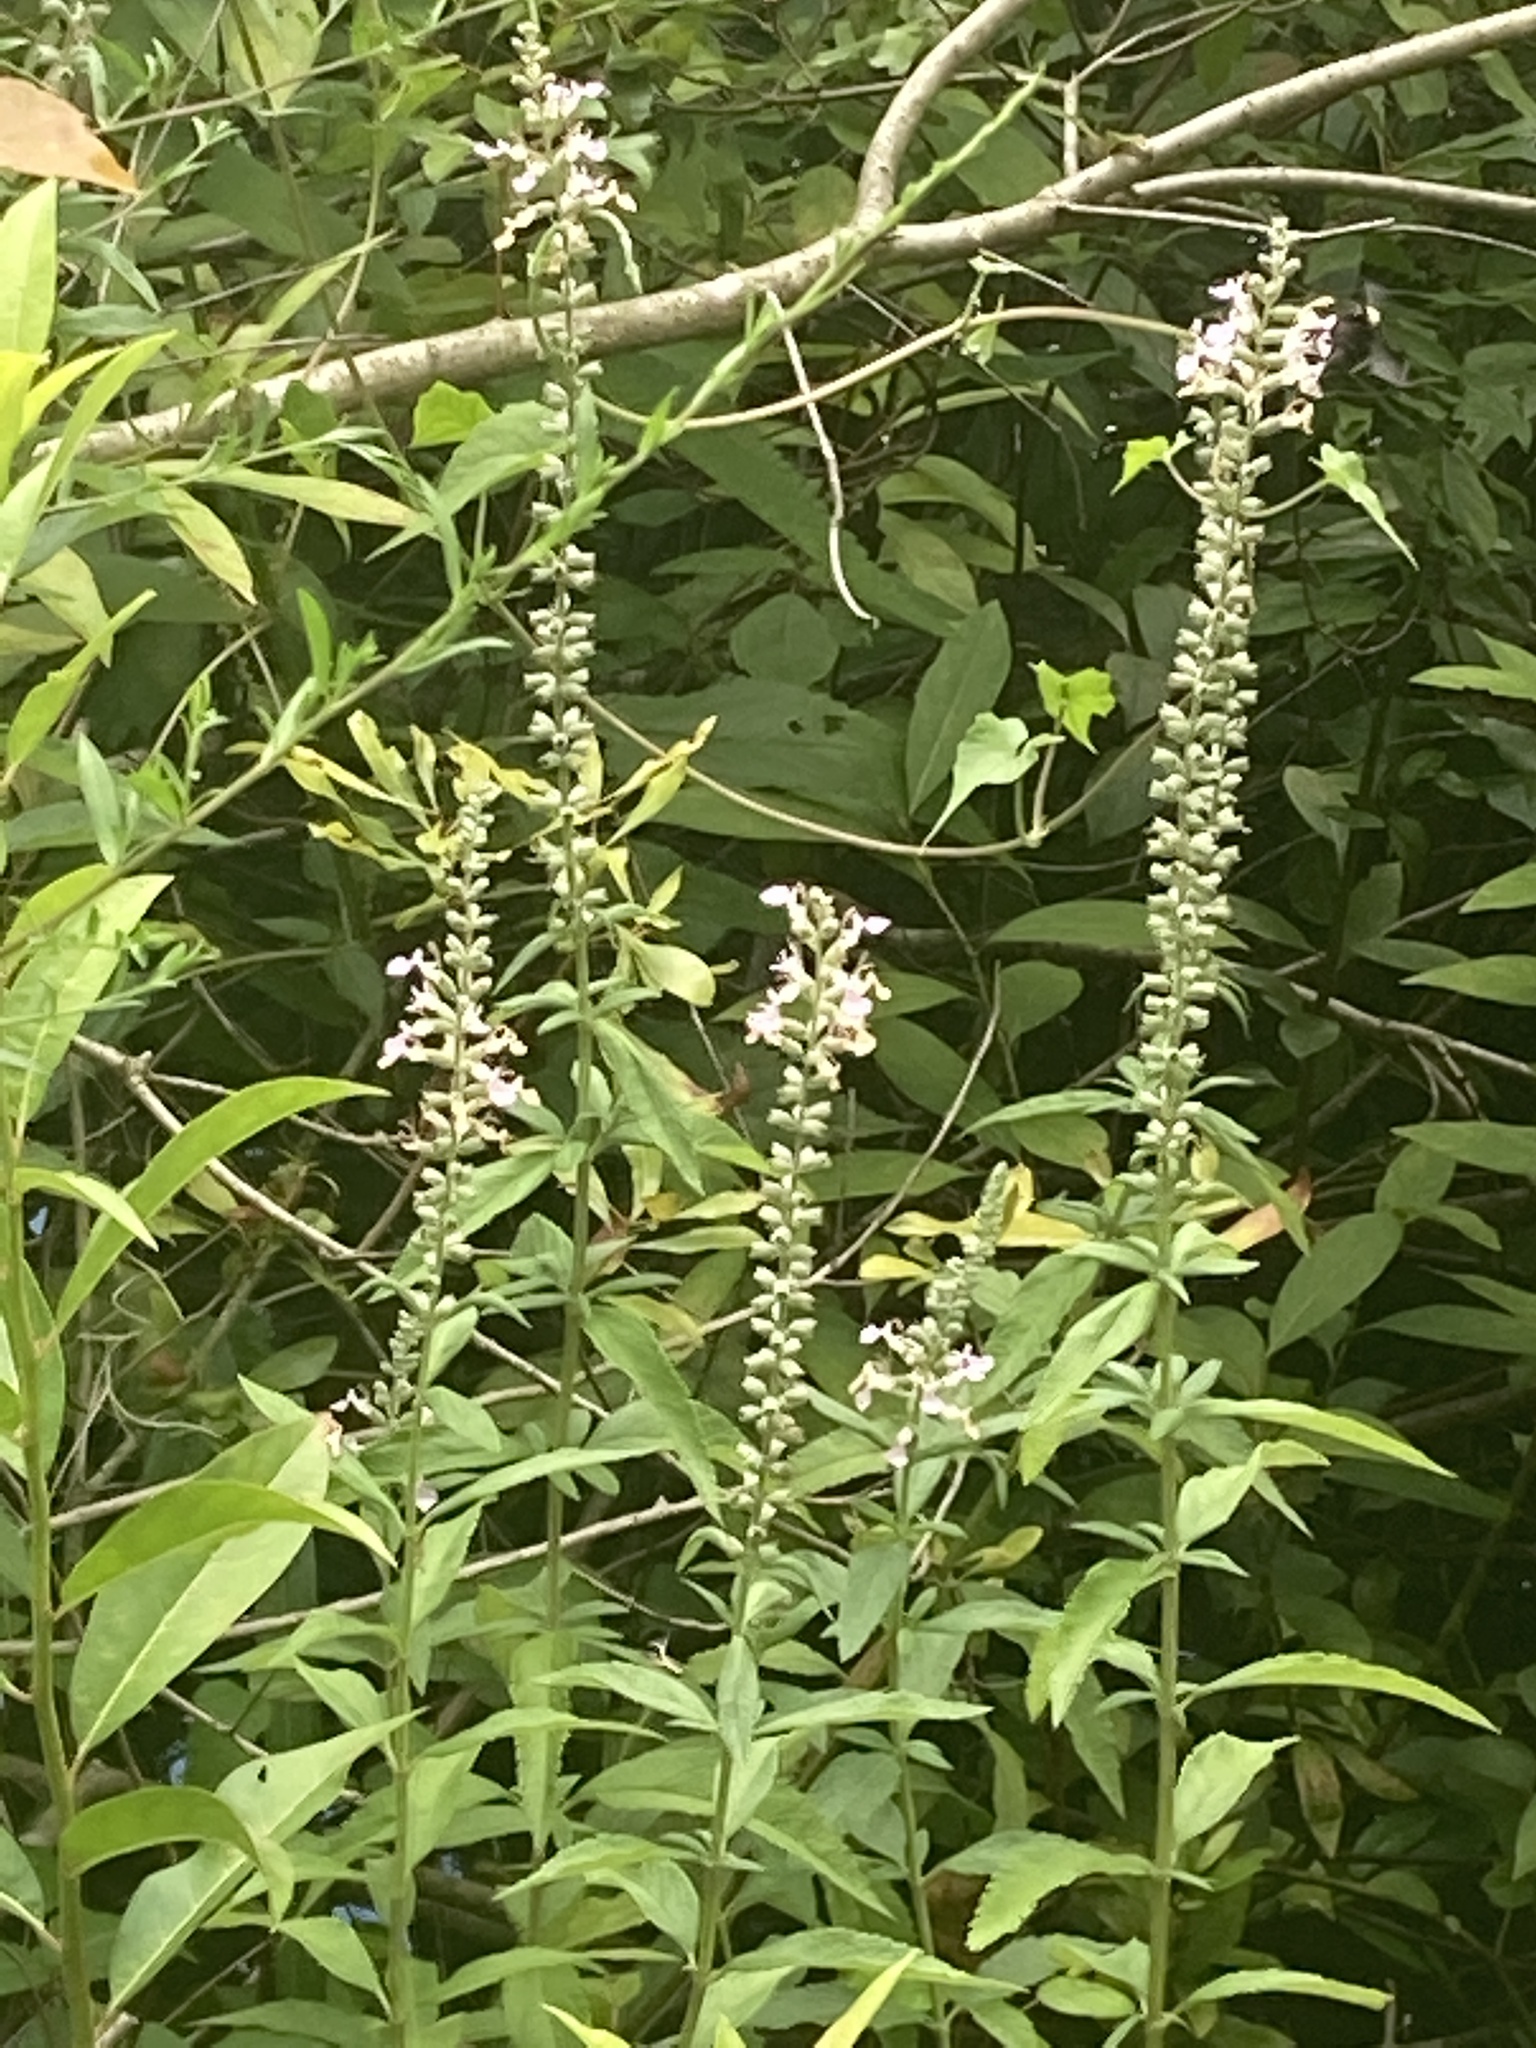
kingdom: Plantae
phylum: Tracheophyta
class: Magnoliopsida
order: Lamiales
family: Lamiaceae
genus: Teucrium
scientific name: Teucrium canadense
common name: American germander
